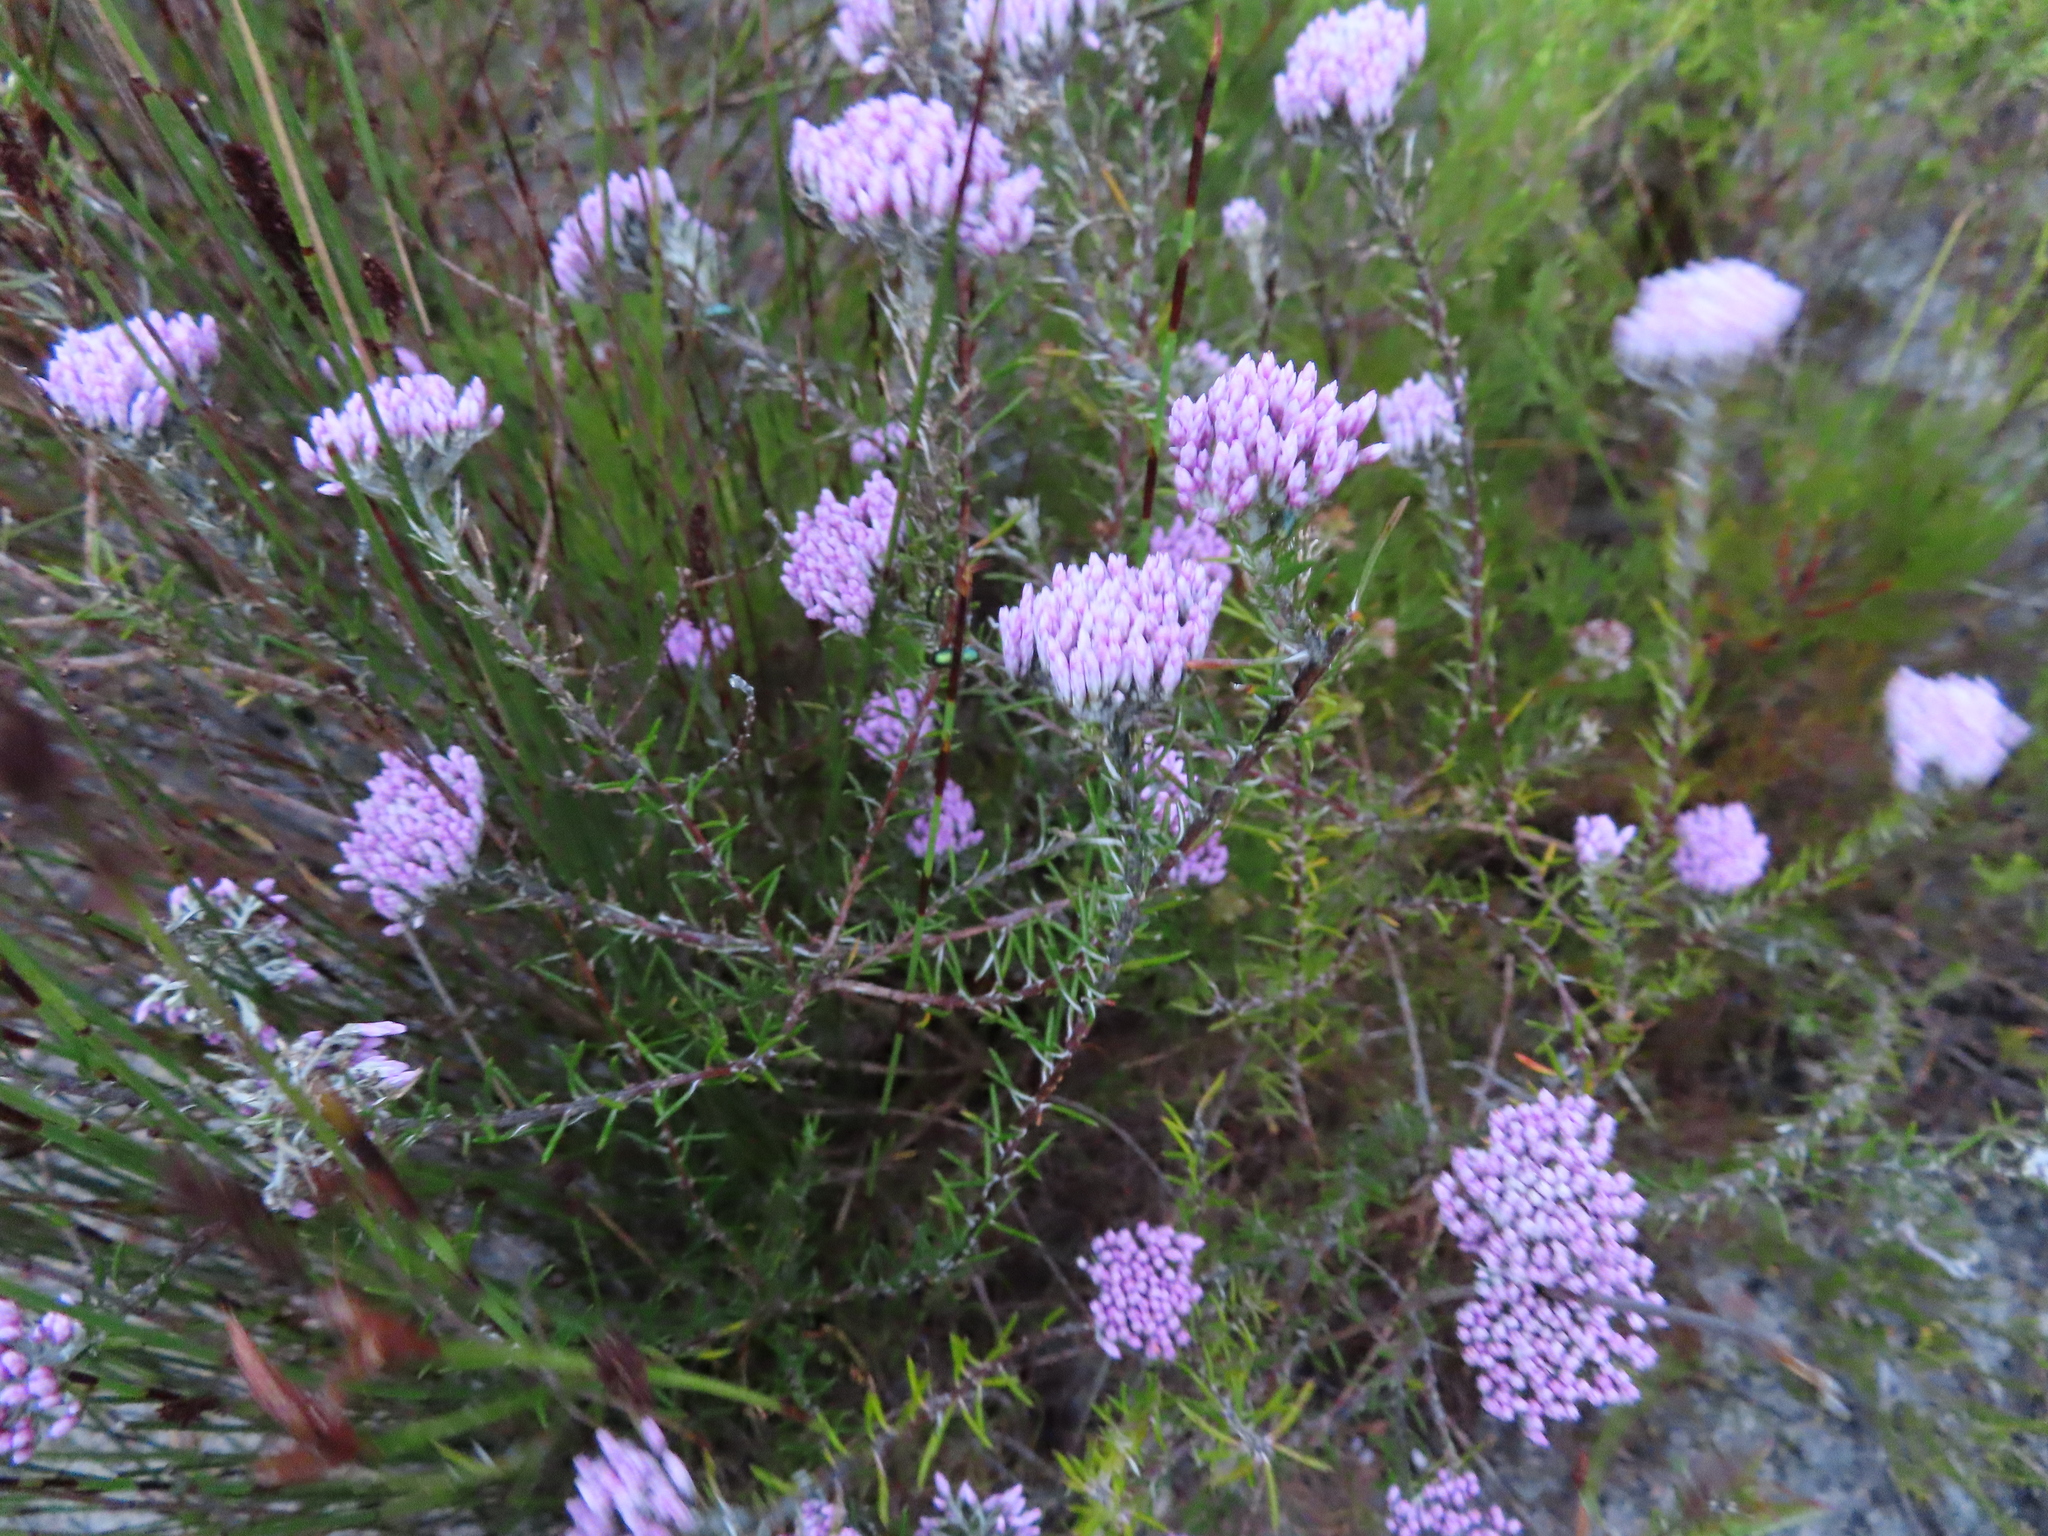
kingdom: Plantae
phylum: Tracheophyta
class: Magnoliopsida
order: Asterales
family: Asteraceae
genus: Metalasia
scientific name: Metalasia erubescens
